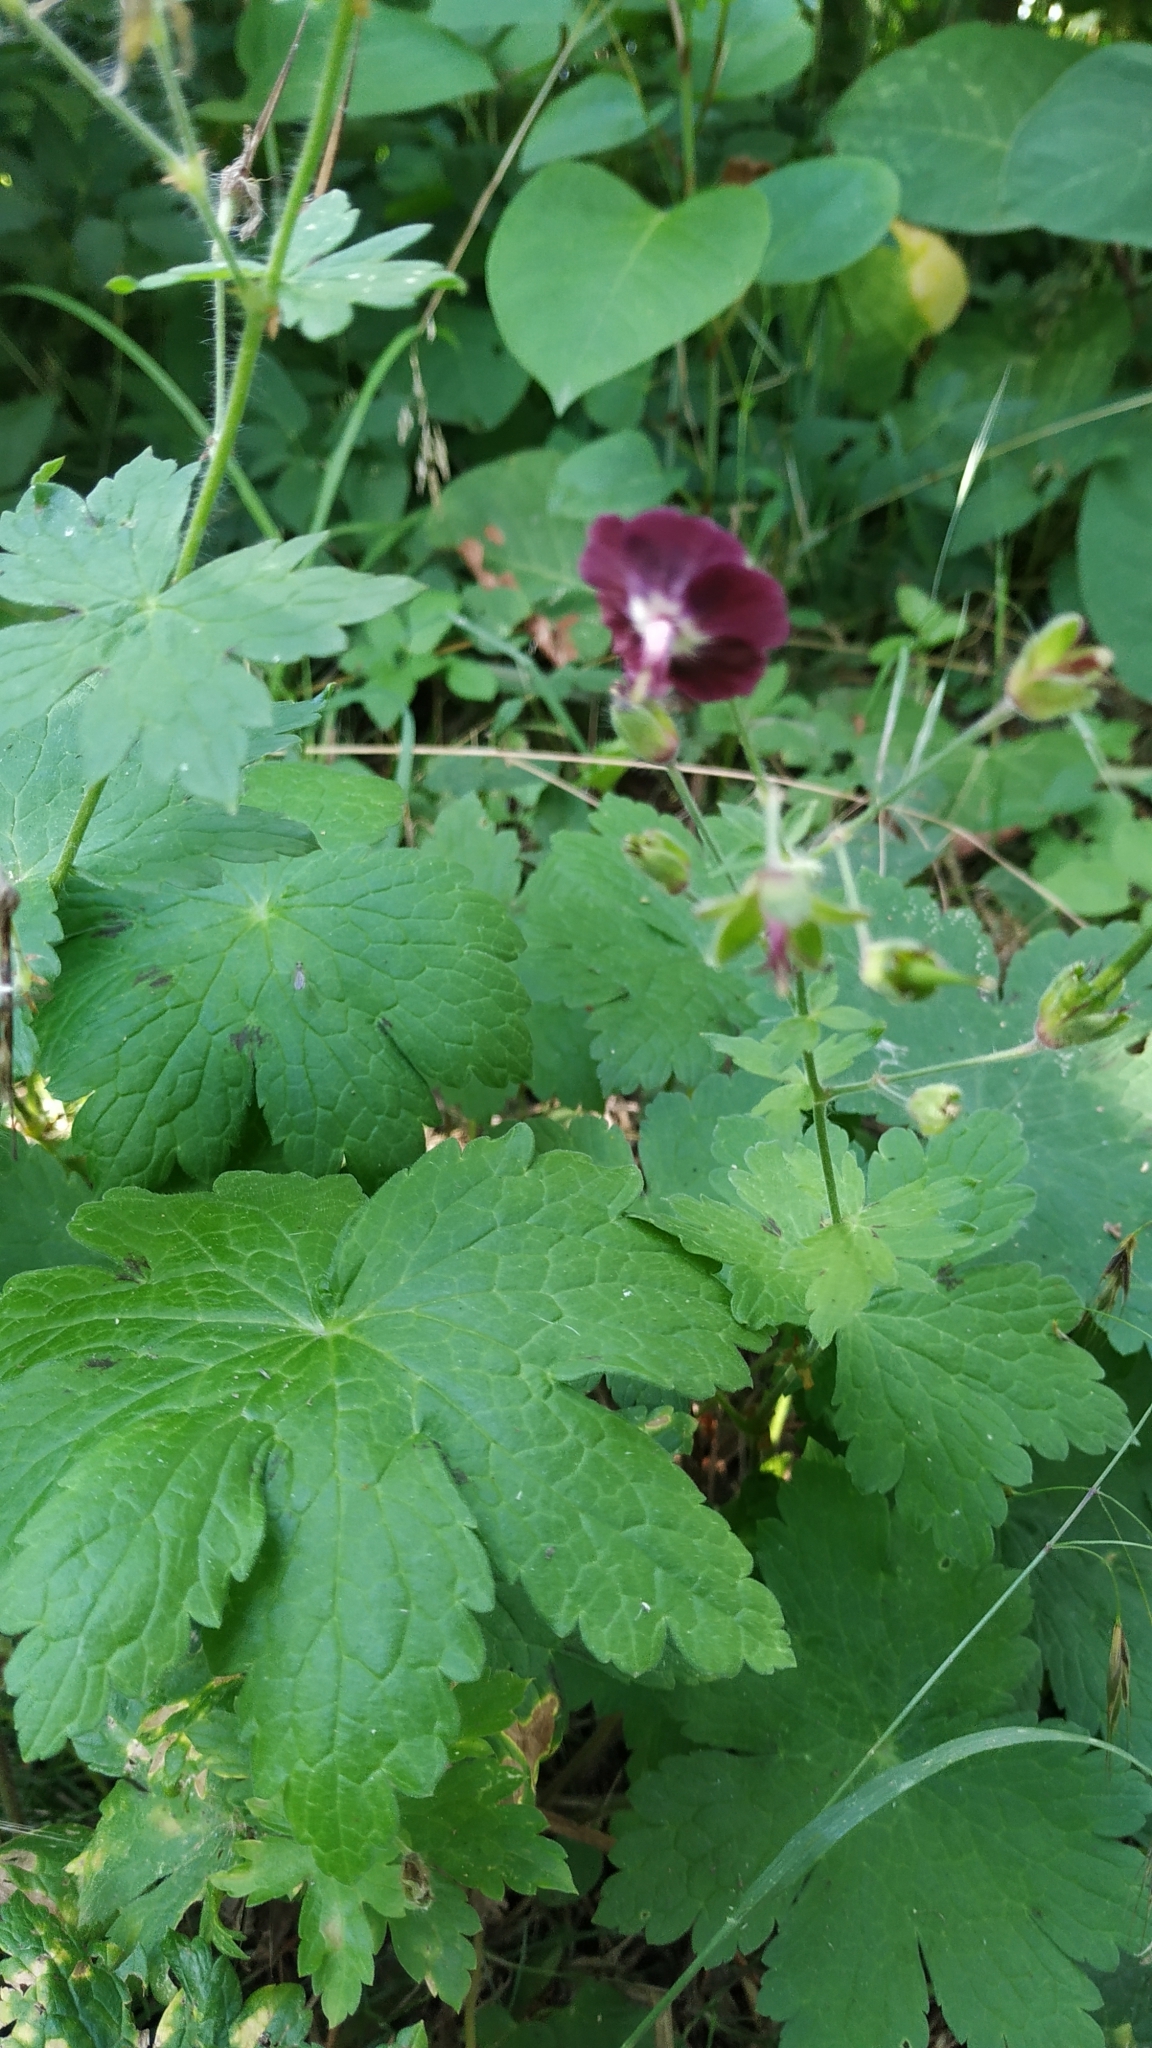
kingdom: Plantae
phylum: Tracheophyta
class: Magnoliopsida
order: Geraniales
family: Geraniaceae
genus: Geranium
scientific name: Geranium phaeum
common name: Dusky crane's-bill
